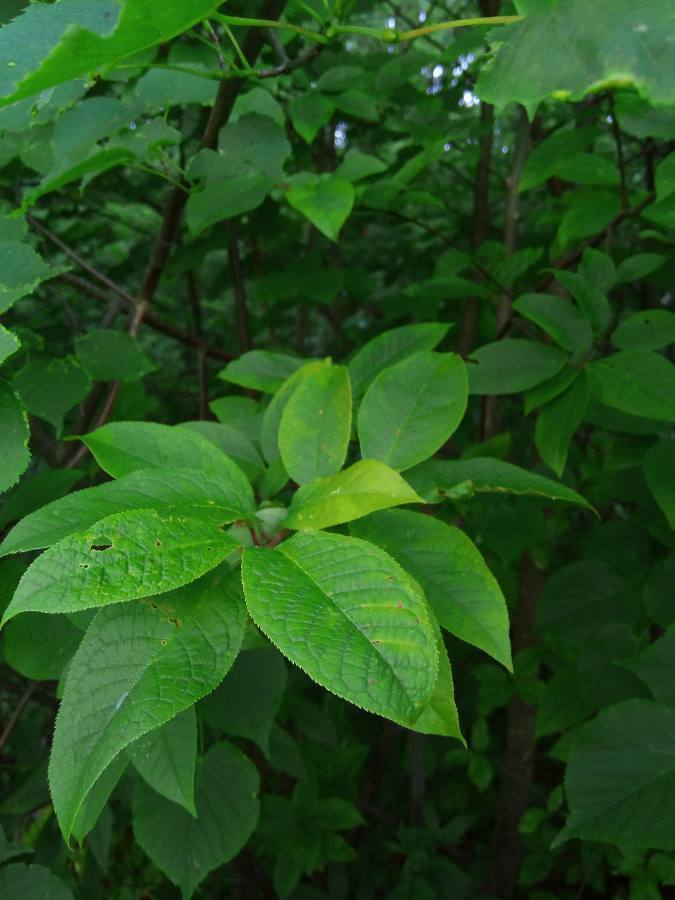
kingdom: Plantae
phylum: Tracheophyta
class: Magnoliopsida
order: Rosales
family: Rosaceae
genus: Prunus
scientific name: Prunus padus
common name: Bird cherry
